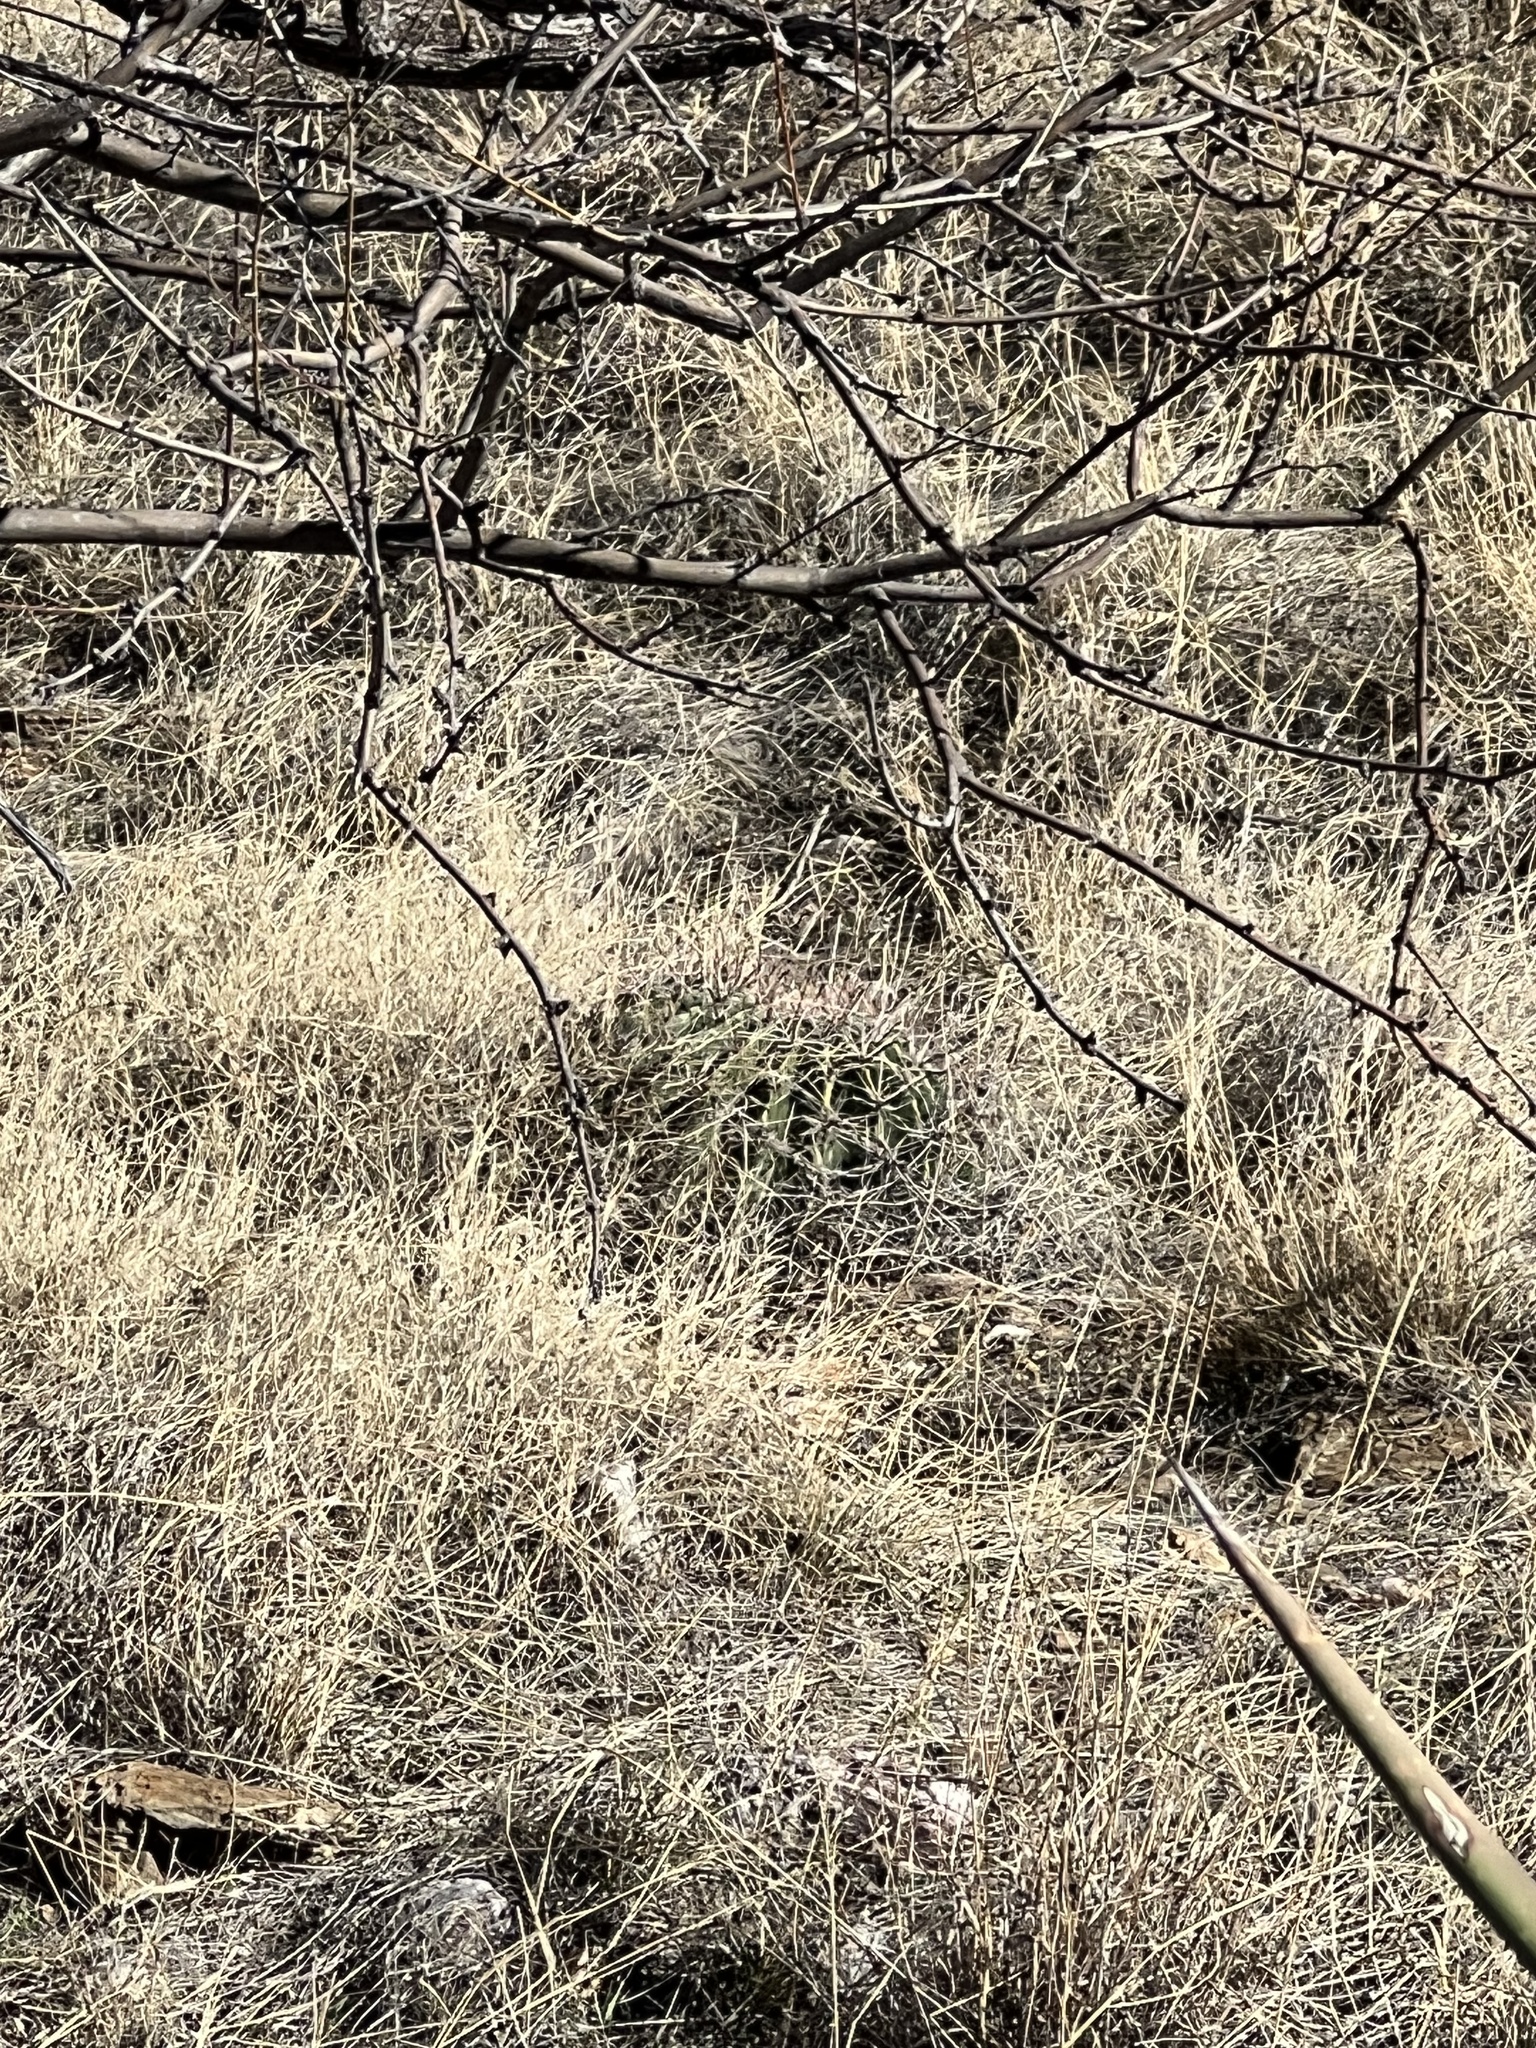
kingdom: Plantae
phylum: Tracheophyta
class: Magnoliopsida
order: Caryophyllales
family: Cactaceae
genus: Ferocactus
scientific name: Ferocactus wislizeni
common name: Candy barrel cactus
